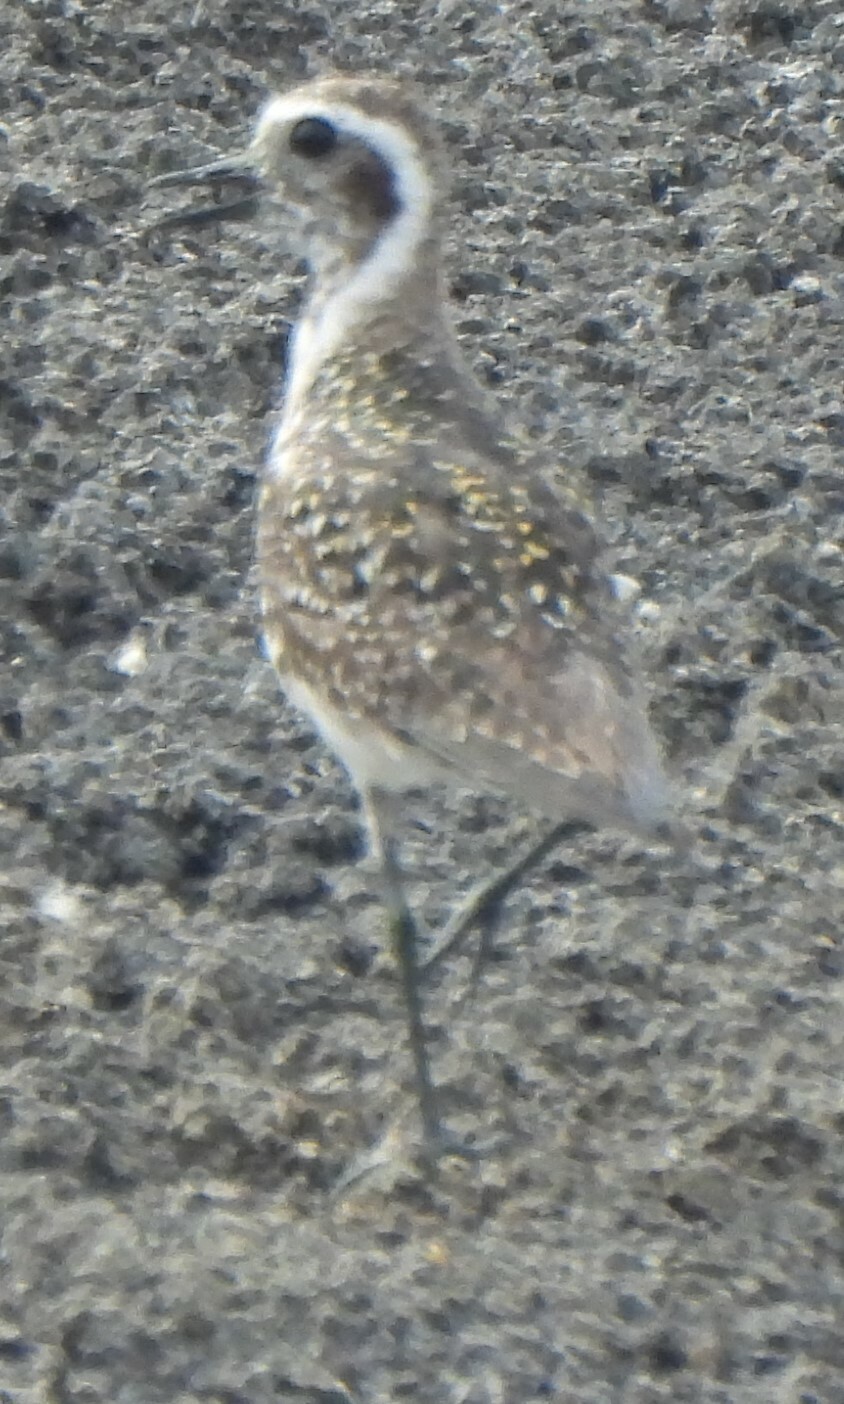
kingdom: Animalia
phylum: Chordata
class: Aves
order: Charadriiformes
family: Charadriidae
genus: Pluvialis
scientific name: Pluvialis dominica
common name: American golden plover
